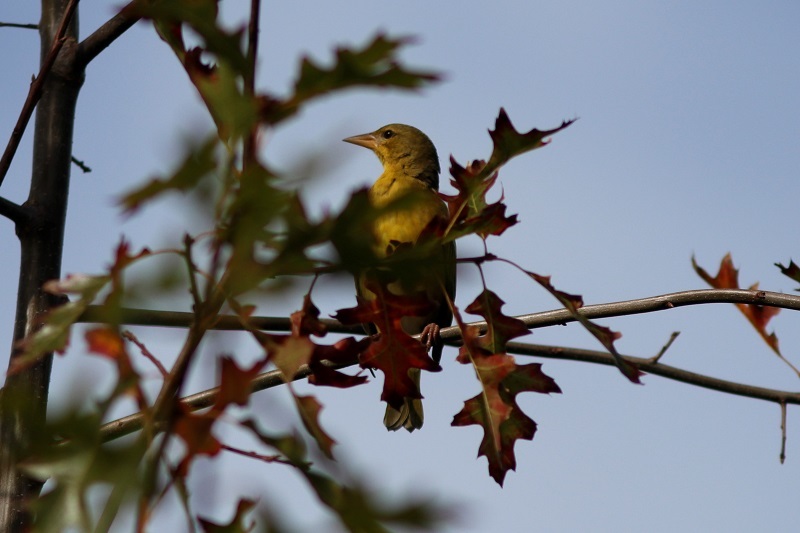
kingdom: Animalia
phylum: Chordata
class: Aves
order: Passeriformes
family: Ploceidae
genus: Ploceus
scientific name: Ploceus capensis
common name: Cape weaver
